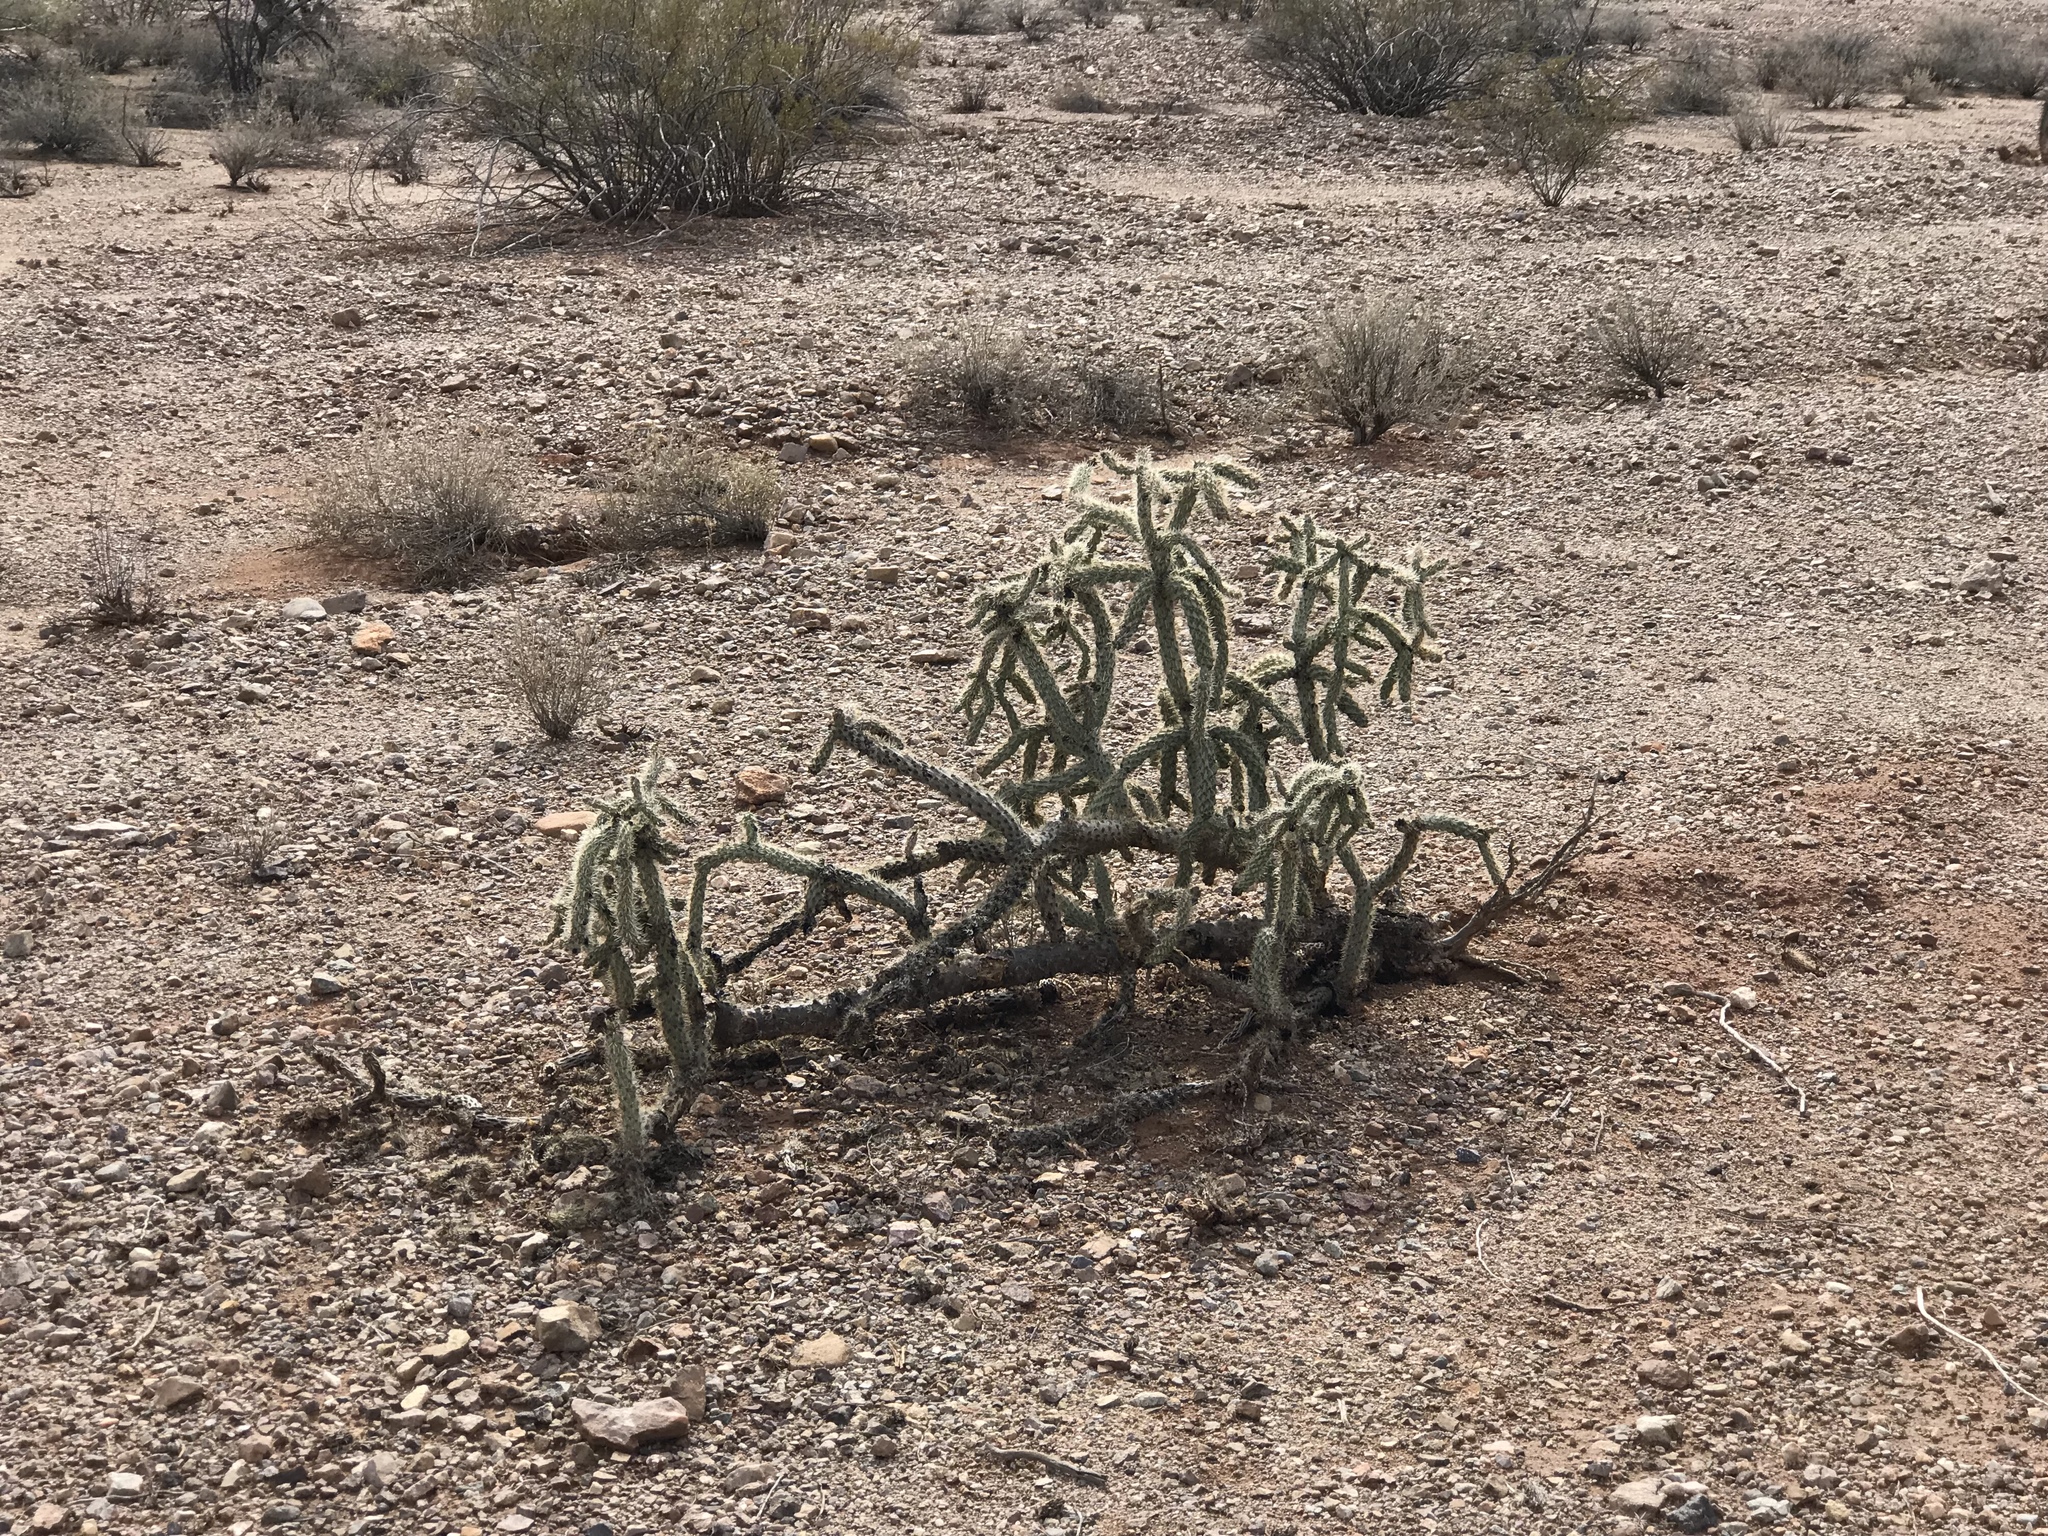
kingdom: Plantae
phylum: Tracheophyta
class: Magnoliopsida
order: Caryophyllales
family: Cactaceae
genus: Cylindropuntia
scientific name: Cylindropuntia imbricata
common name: Candelabrum cactus
